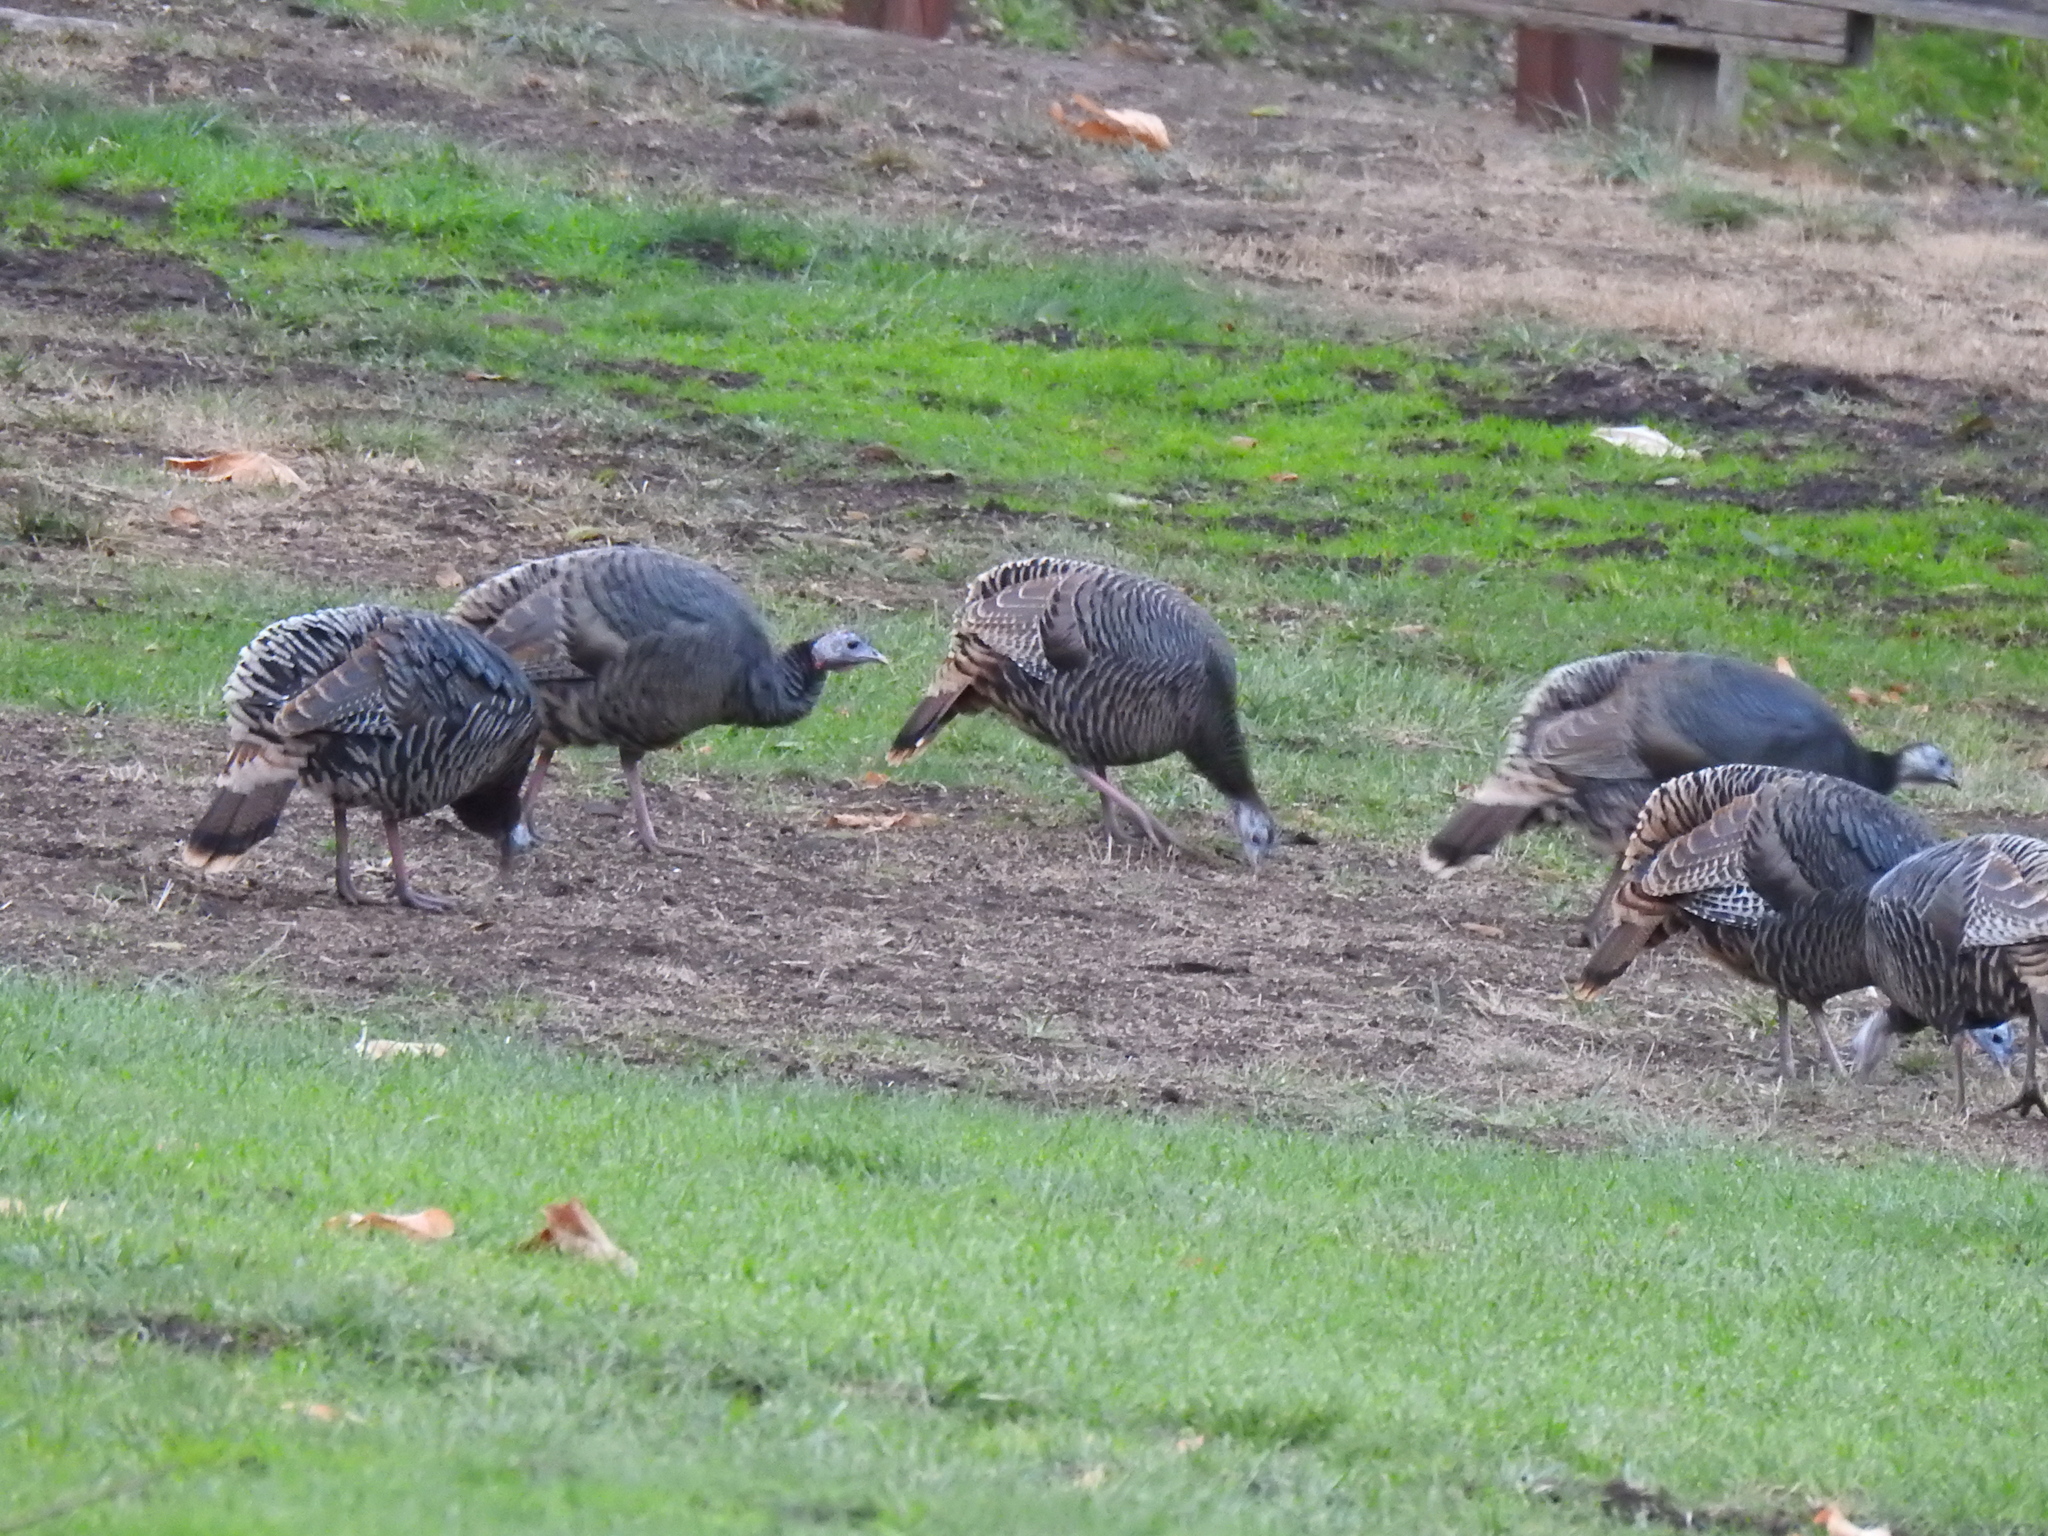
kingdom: Animalia
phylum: Chordata
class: Aves
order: Galliformes
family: Phasianidae
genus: Meleagris
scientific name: Meleagris gallopavo
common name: Wild turkey
